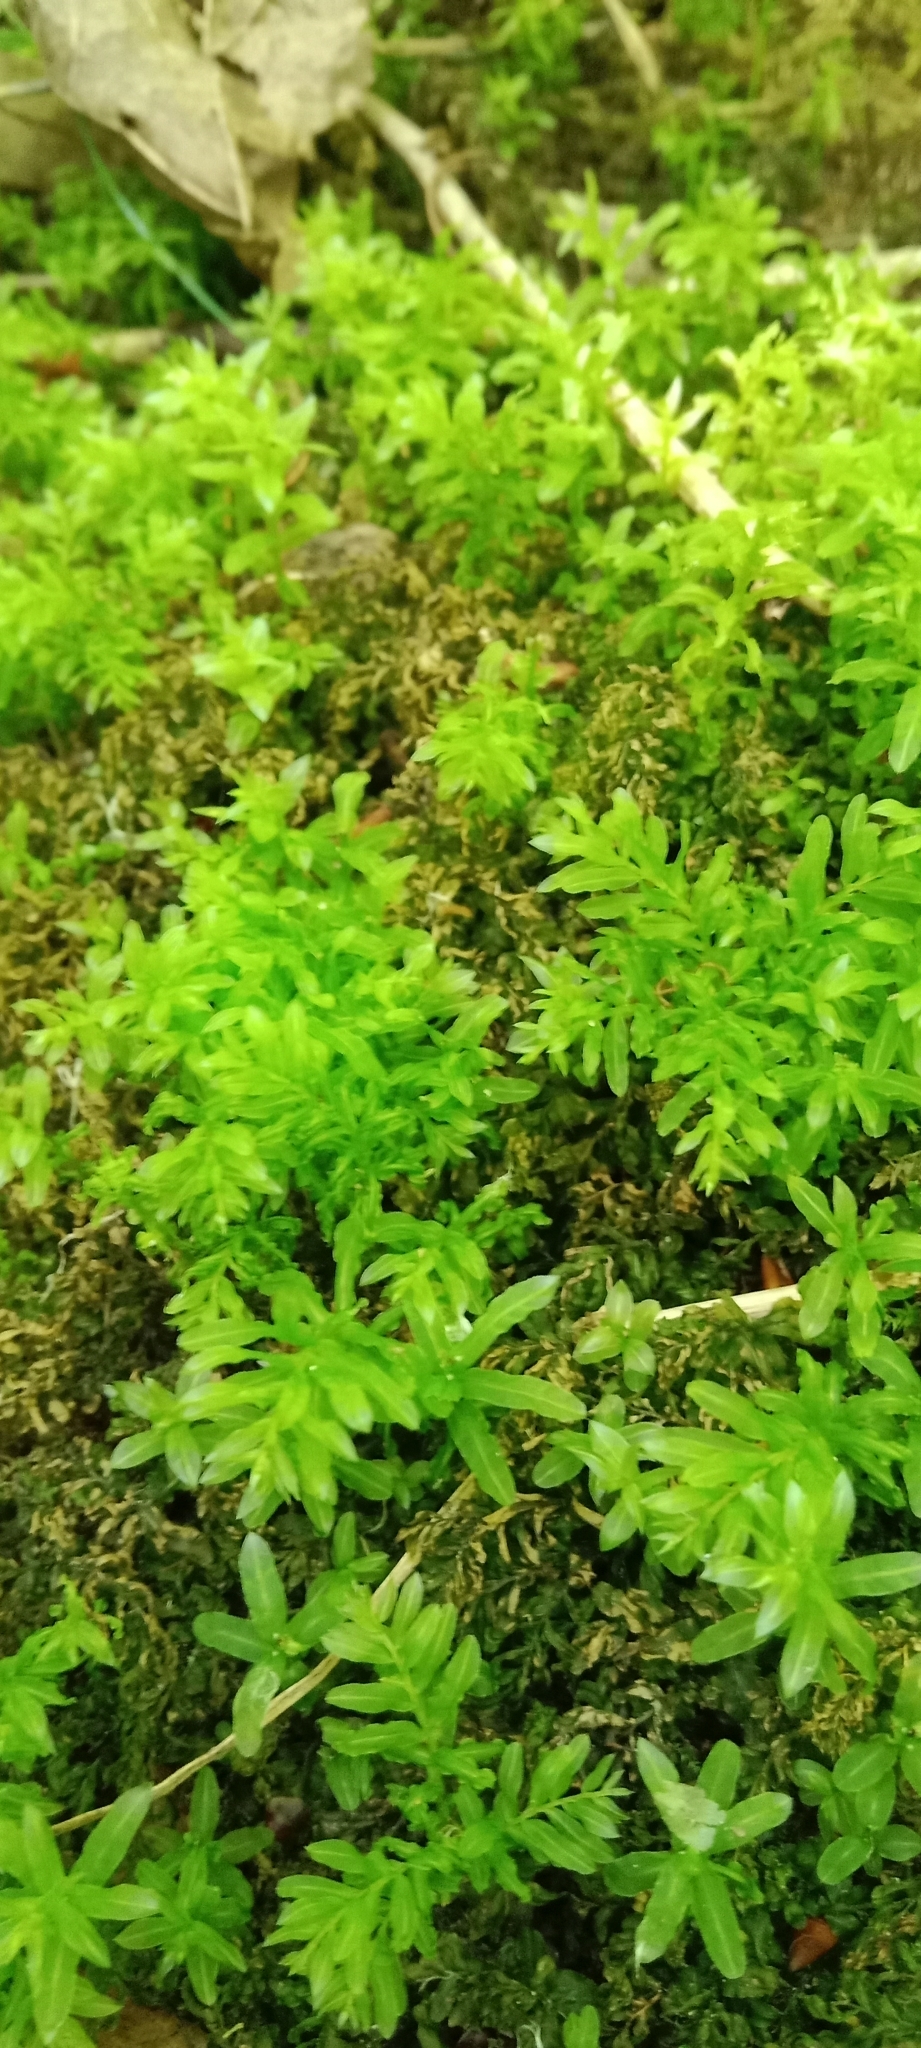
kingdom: Plantae
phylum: Bryophyta
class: Bryopsida
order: Bryales
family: Mniaceae
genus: Plagiomnium
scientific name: Plagiomnium undulatum
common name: Hart's-tongue thyme-moss
